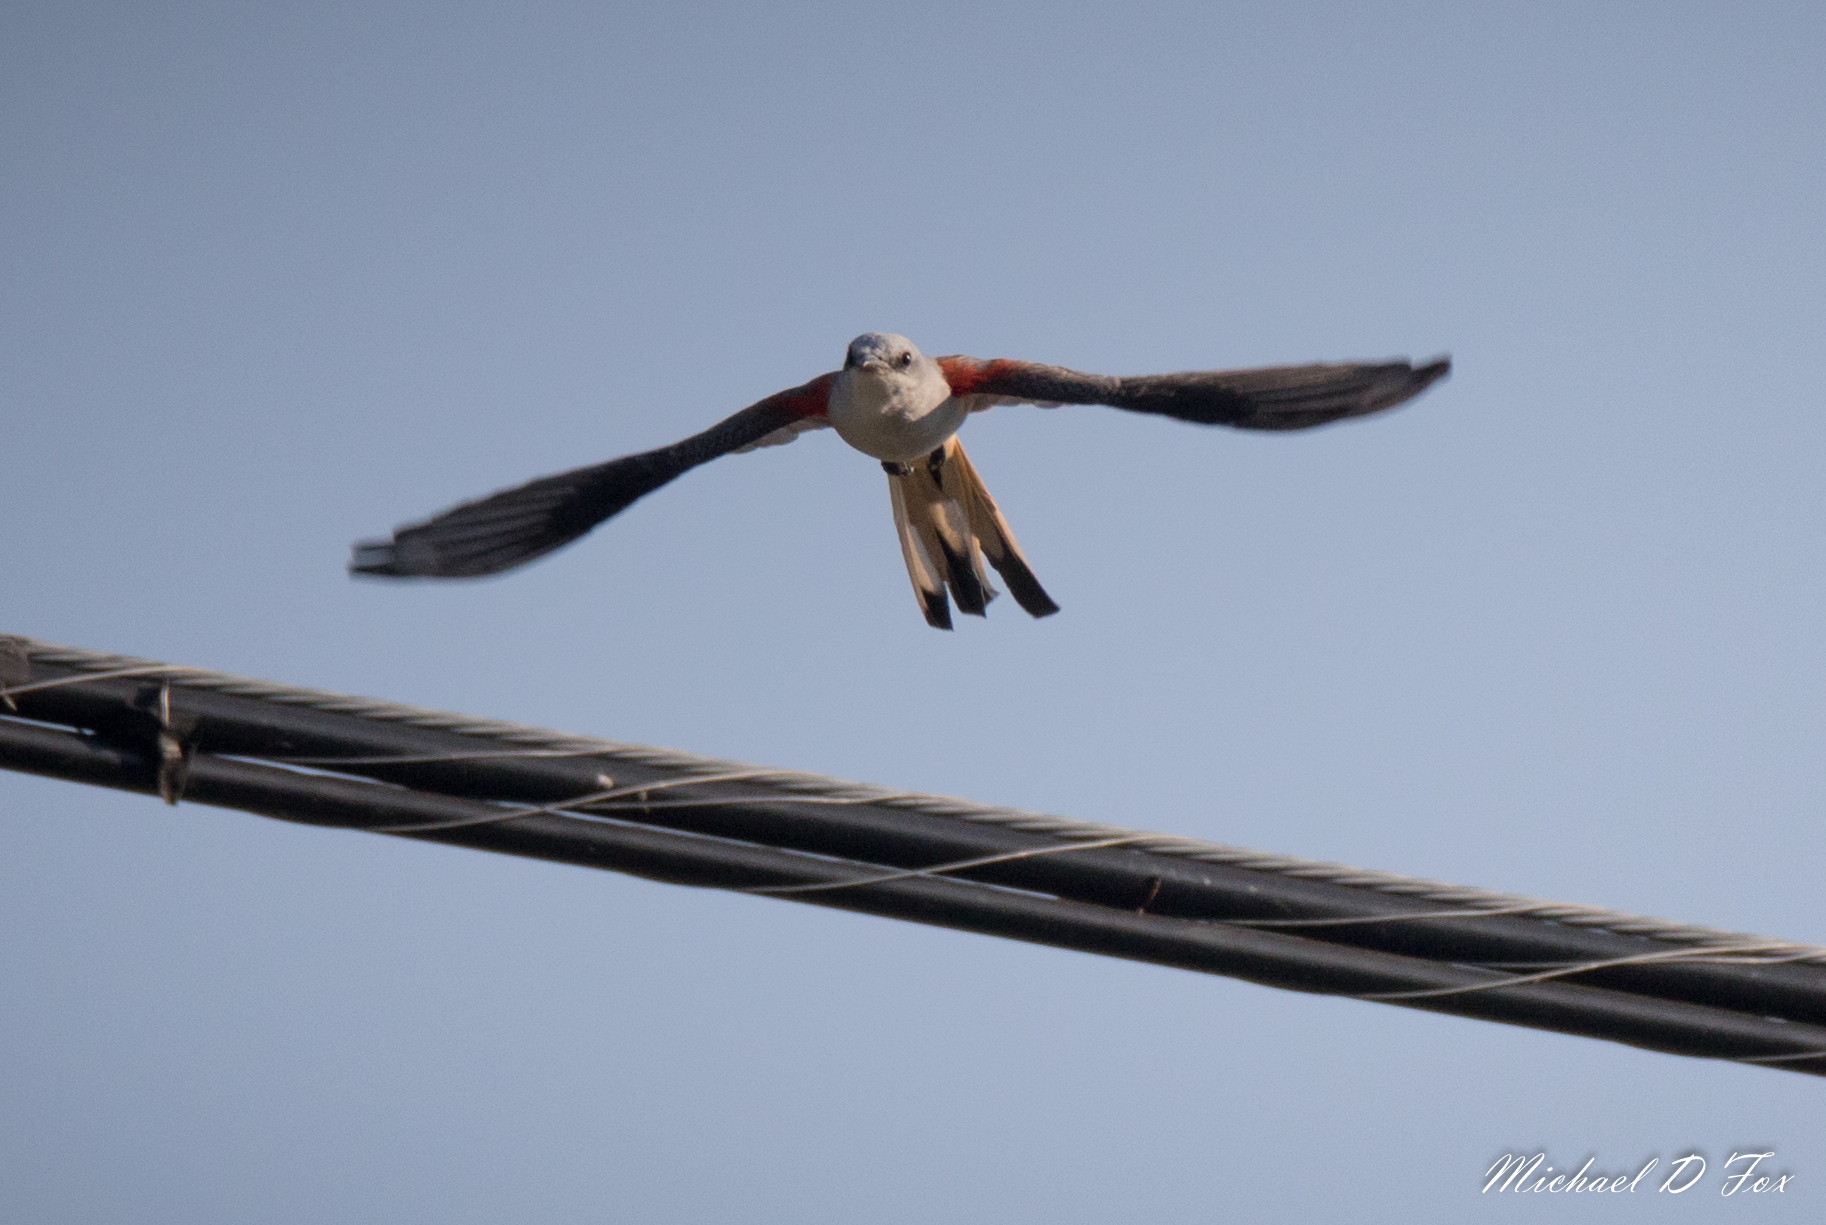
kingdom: Animalia
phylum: Chordata
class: Aves
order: Passeriformes
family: Tyrannidae
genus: Tyrannus
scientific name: Tyrannus forficatus
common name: Scissor-tailed flycatcher
